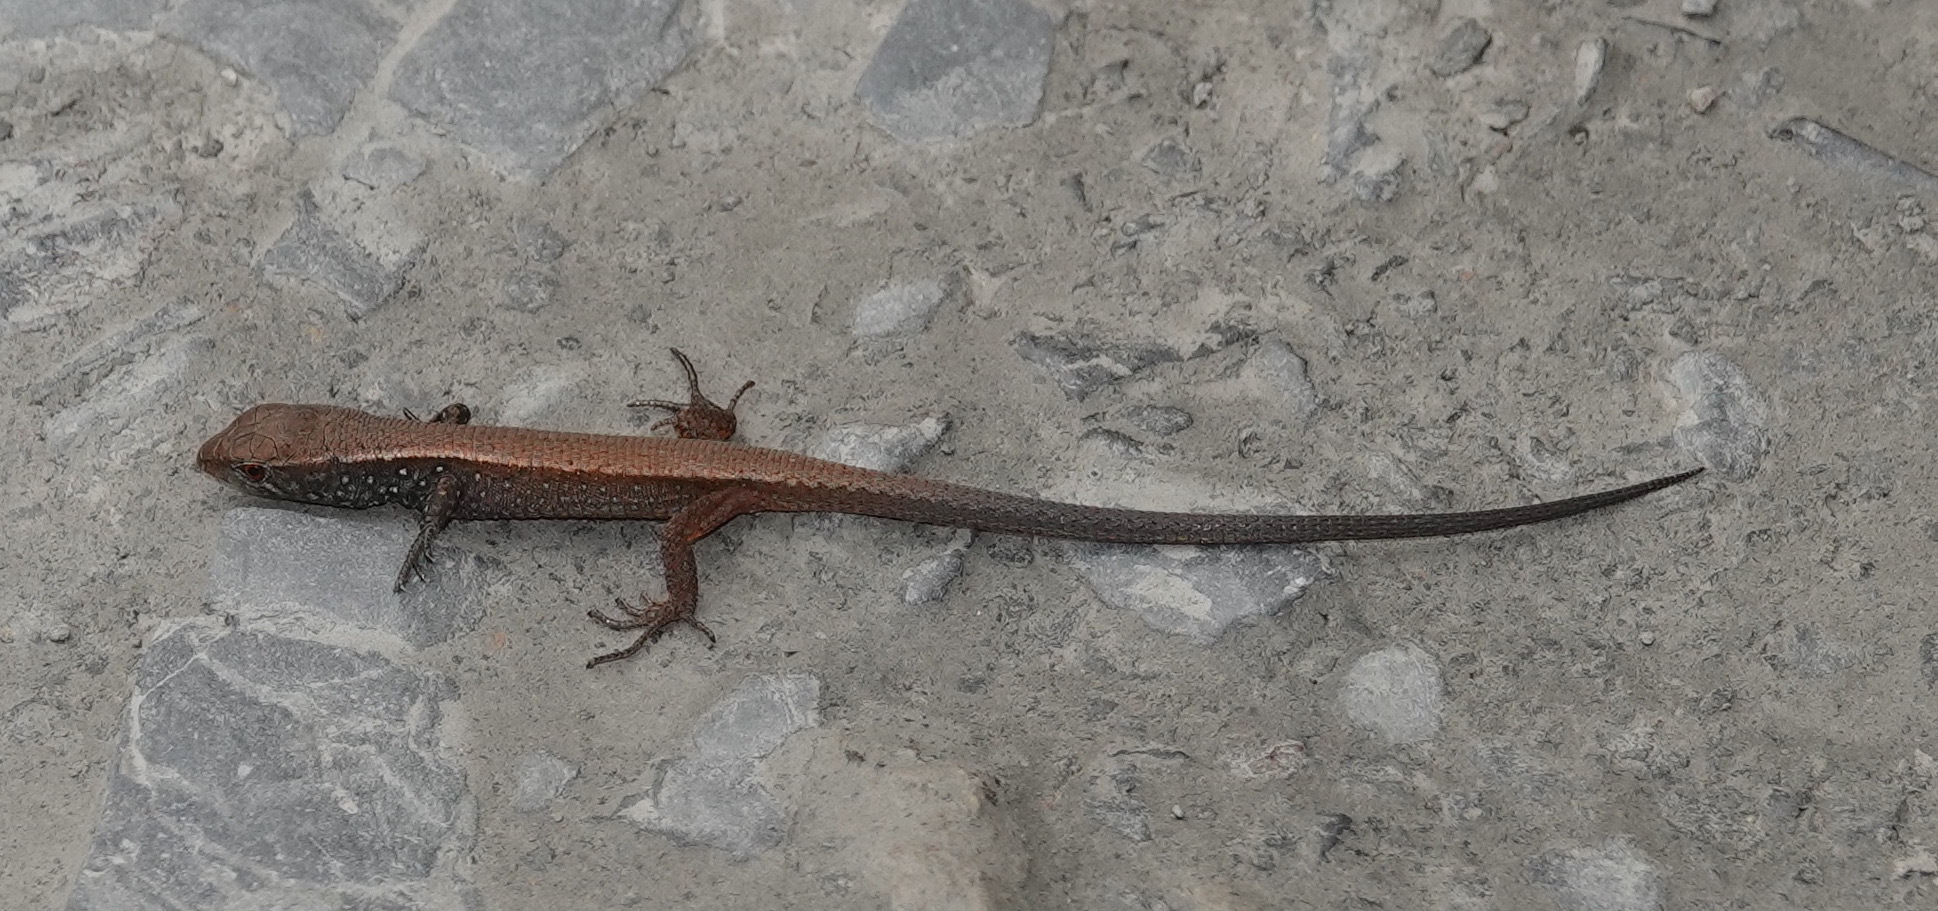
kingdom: Animalia
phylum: Chordata
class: Squamata
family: Gymnophthalmidae
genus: Proctoporus
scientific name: Proctoporus lacertus
